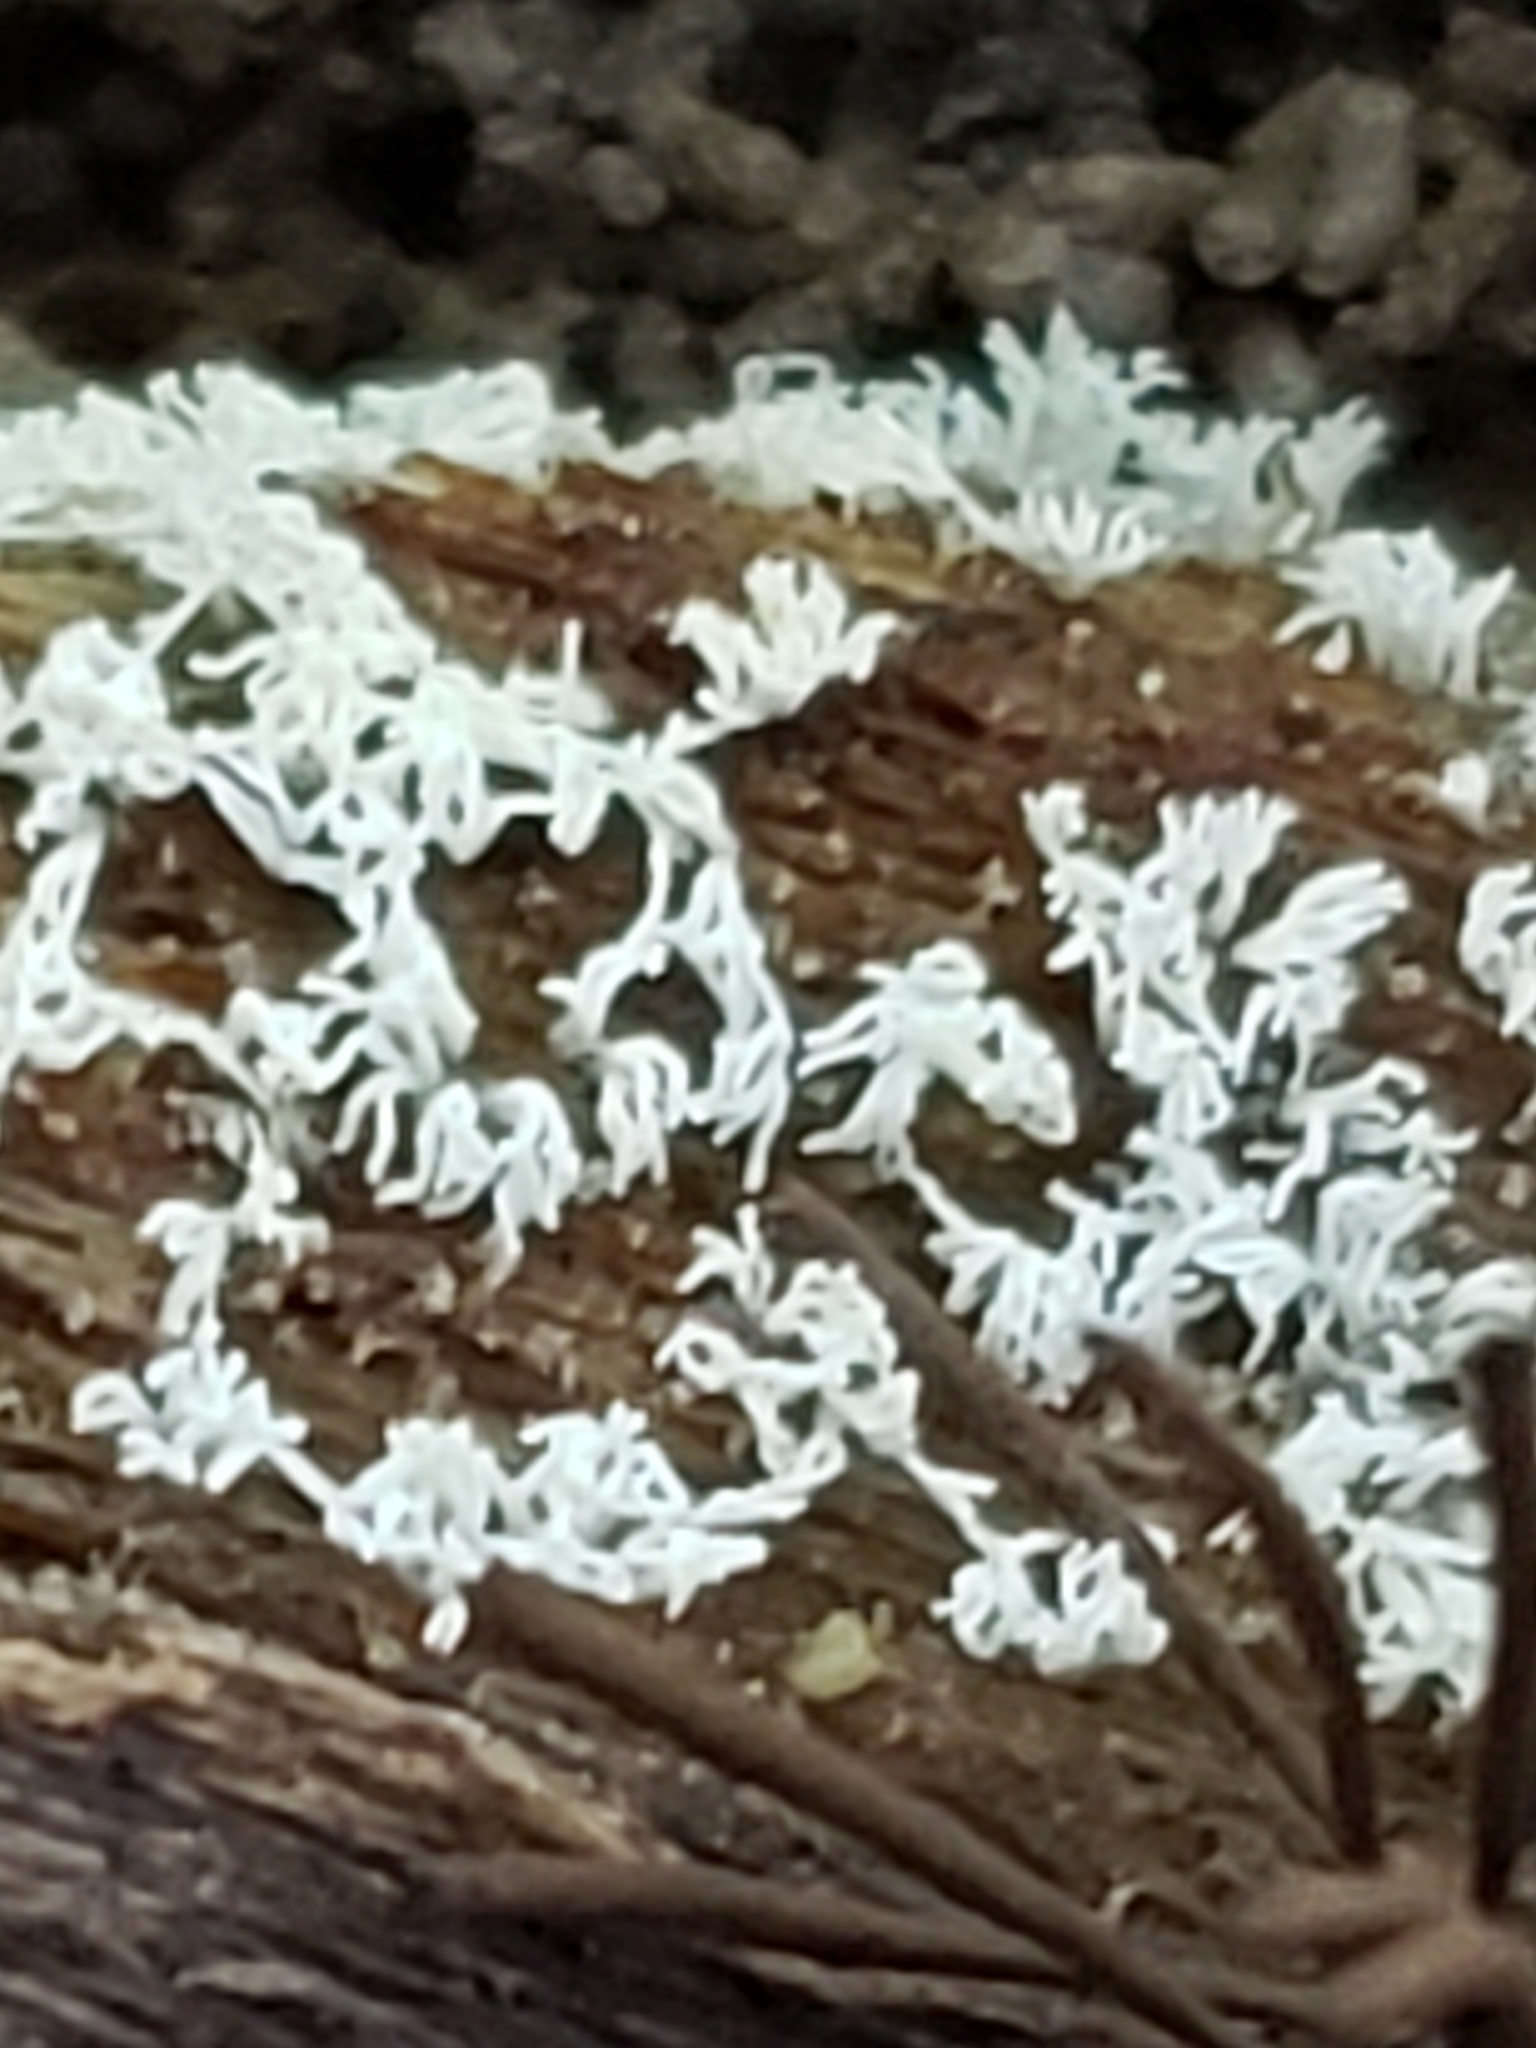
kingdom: Protozoa
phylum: Mycetozoa
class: Protosteliomycetes
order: Ceratiomyxales
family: Ceratiomyxaceae
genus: Ceratiomyxa
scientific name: Ceratiomyxa fruticulosa
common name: Honeycomb coral slime mold
